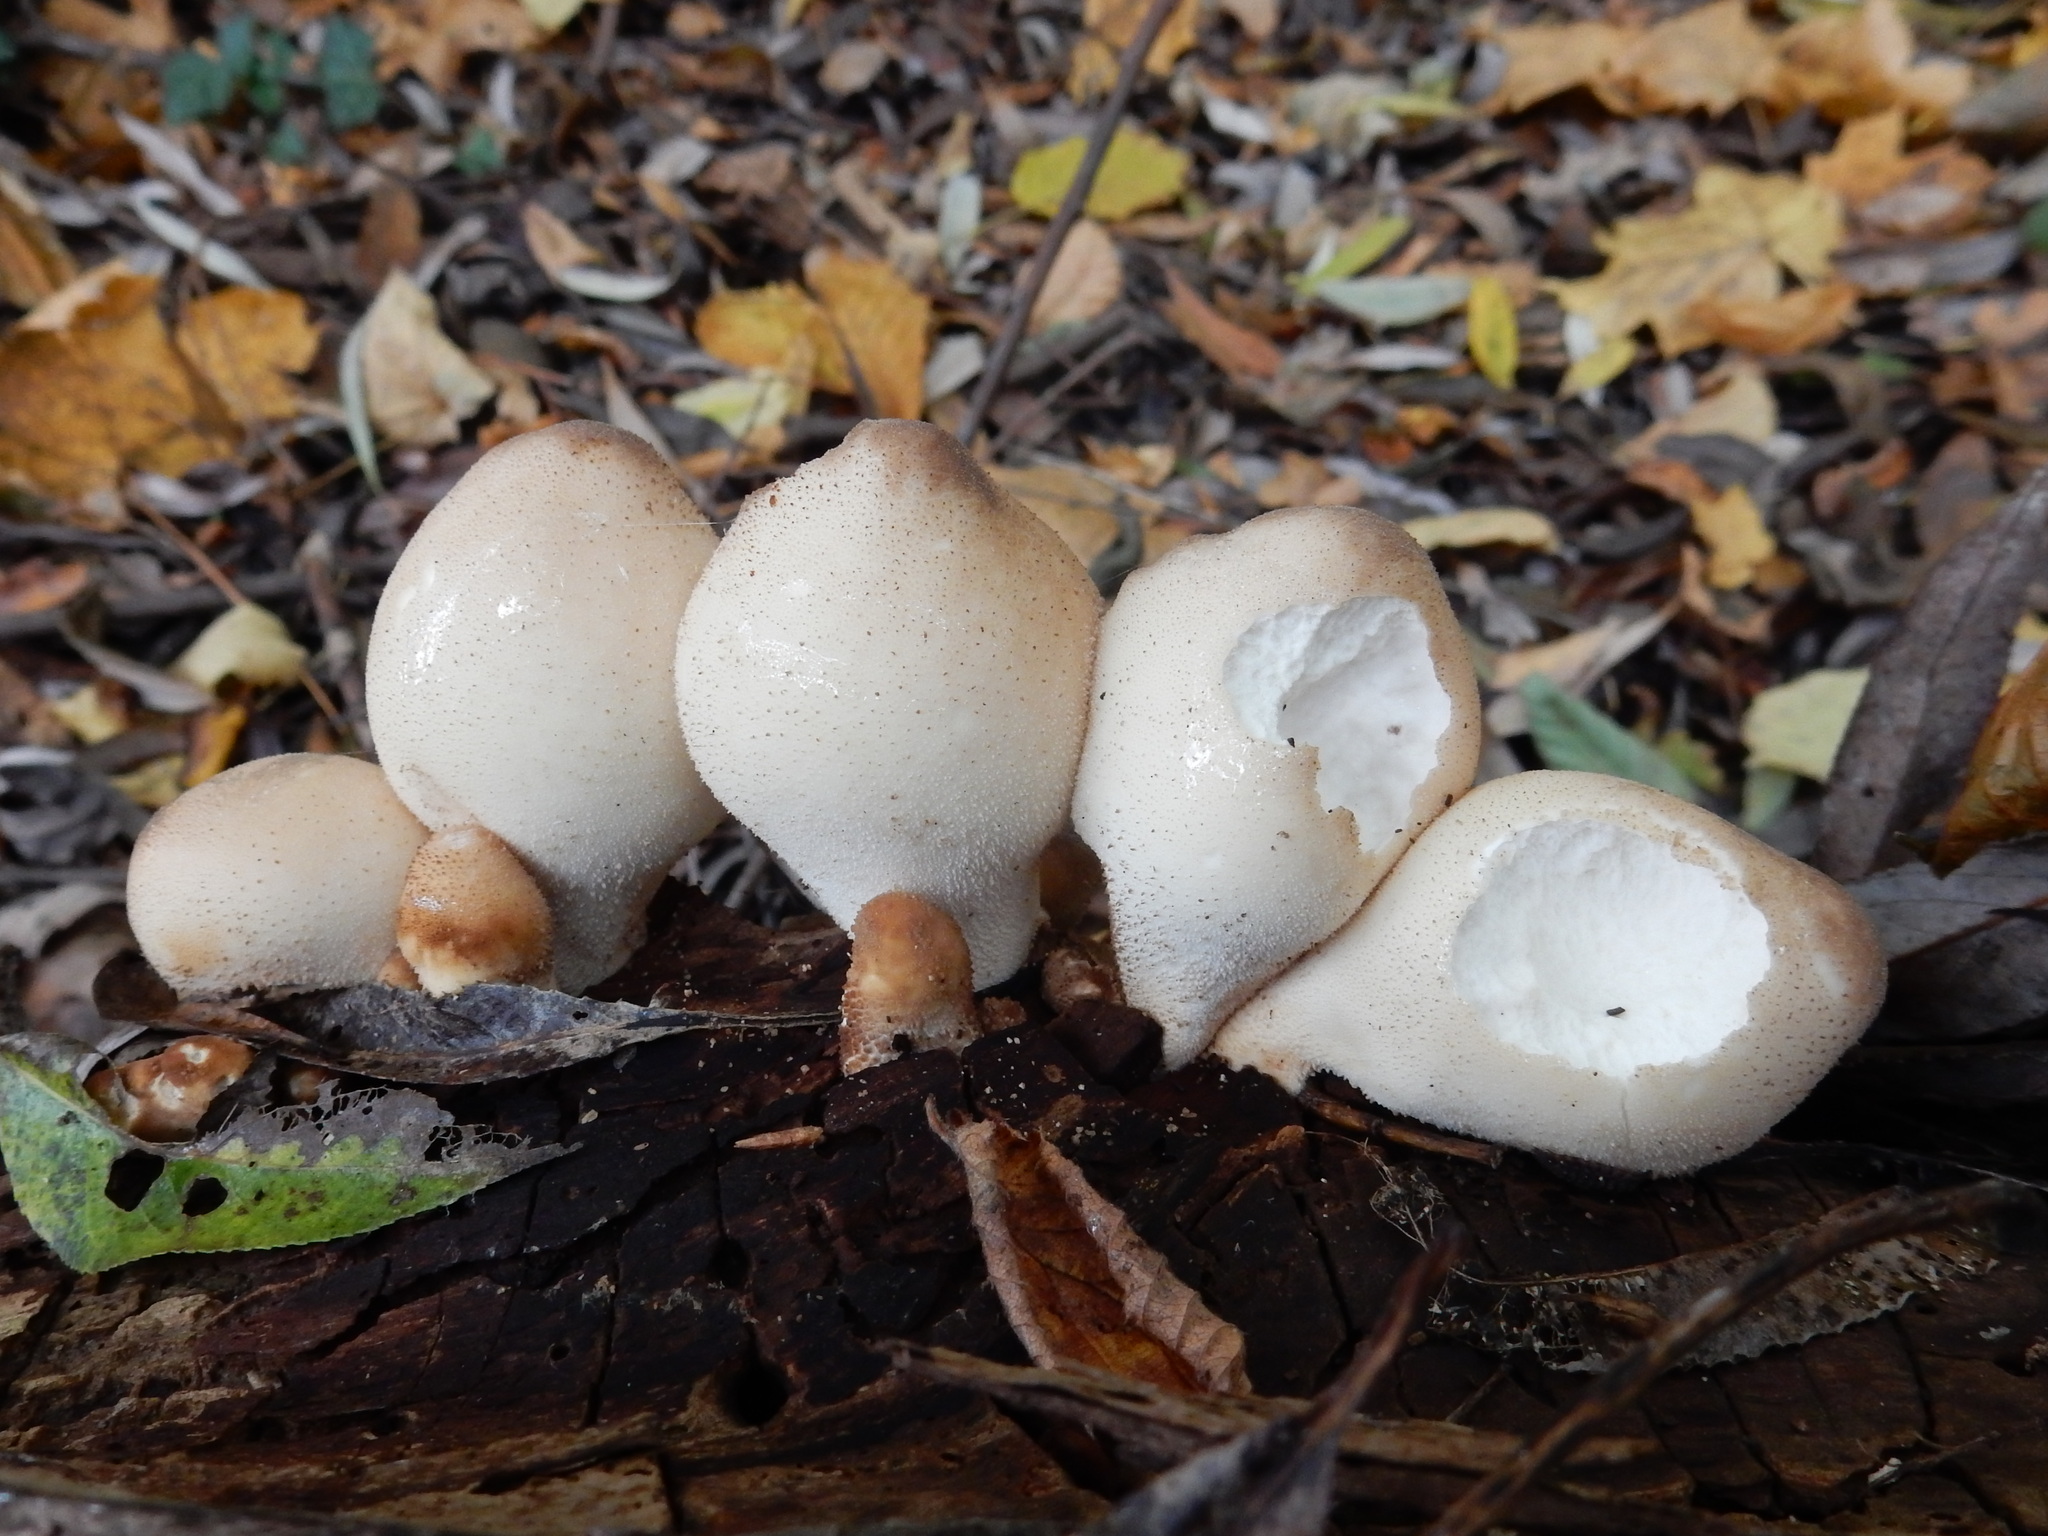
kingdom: Fungi
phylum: Basidiomycota
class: Agaricomycetes
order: Agaricales
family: Lycoperdaceae
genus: Apioperdon
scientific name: Apioperdon pyriforme
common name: Pear-shaped puffball
